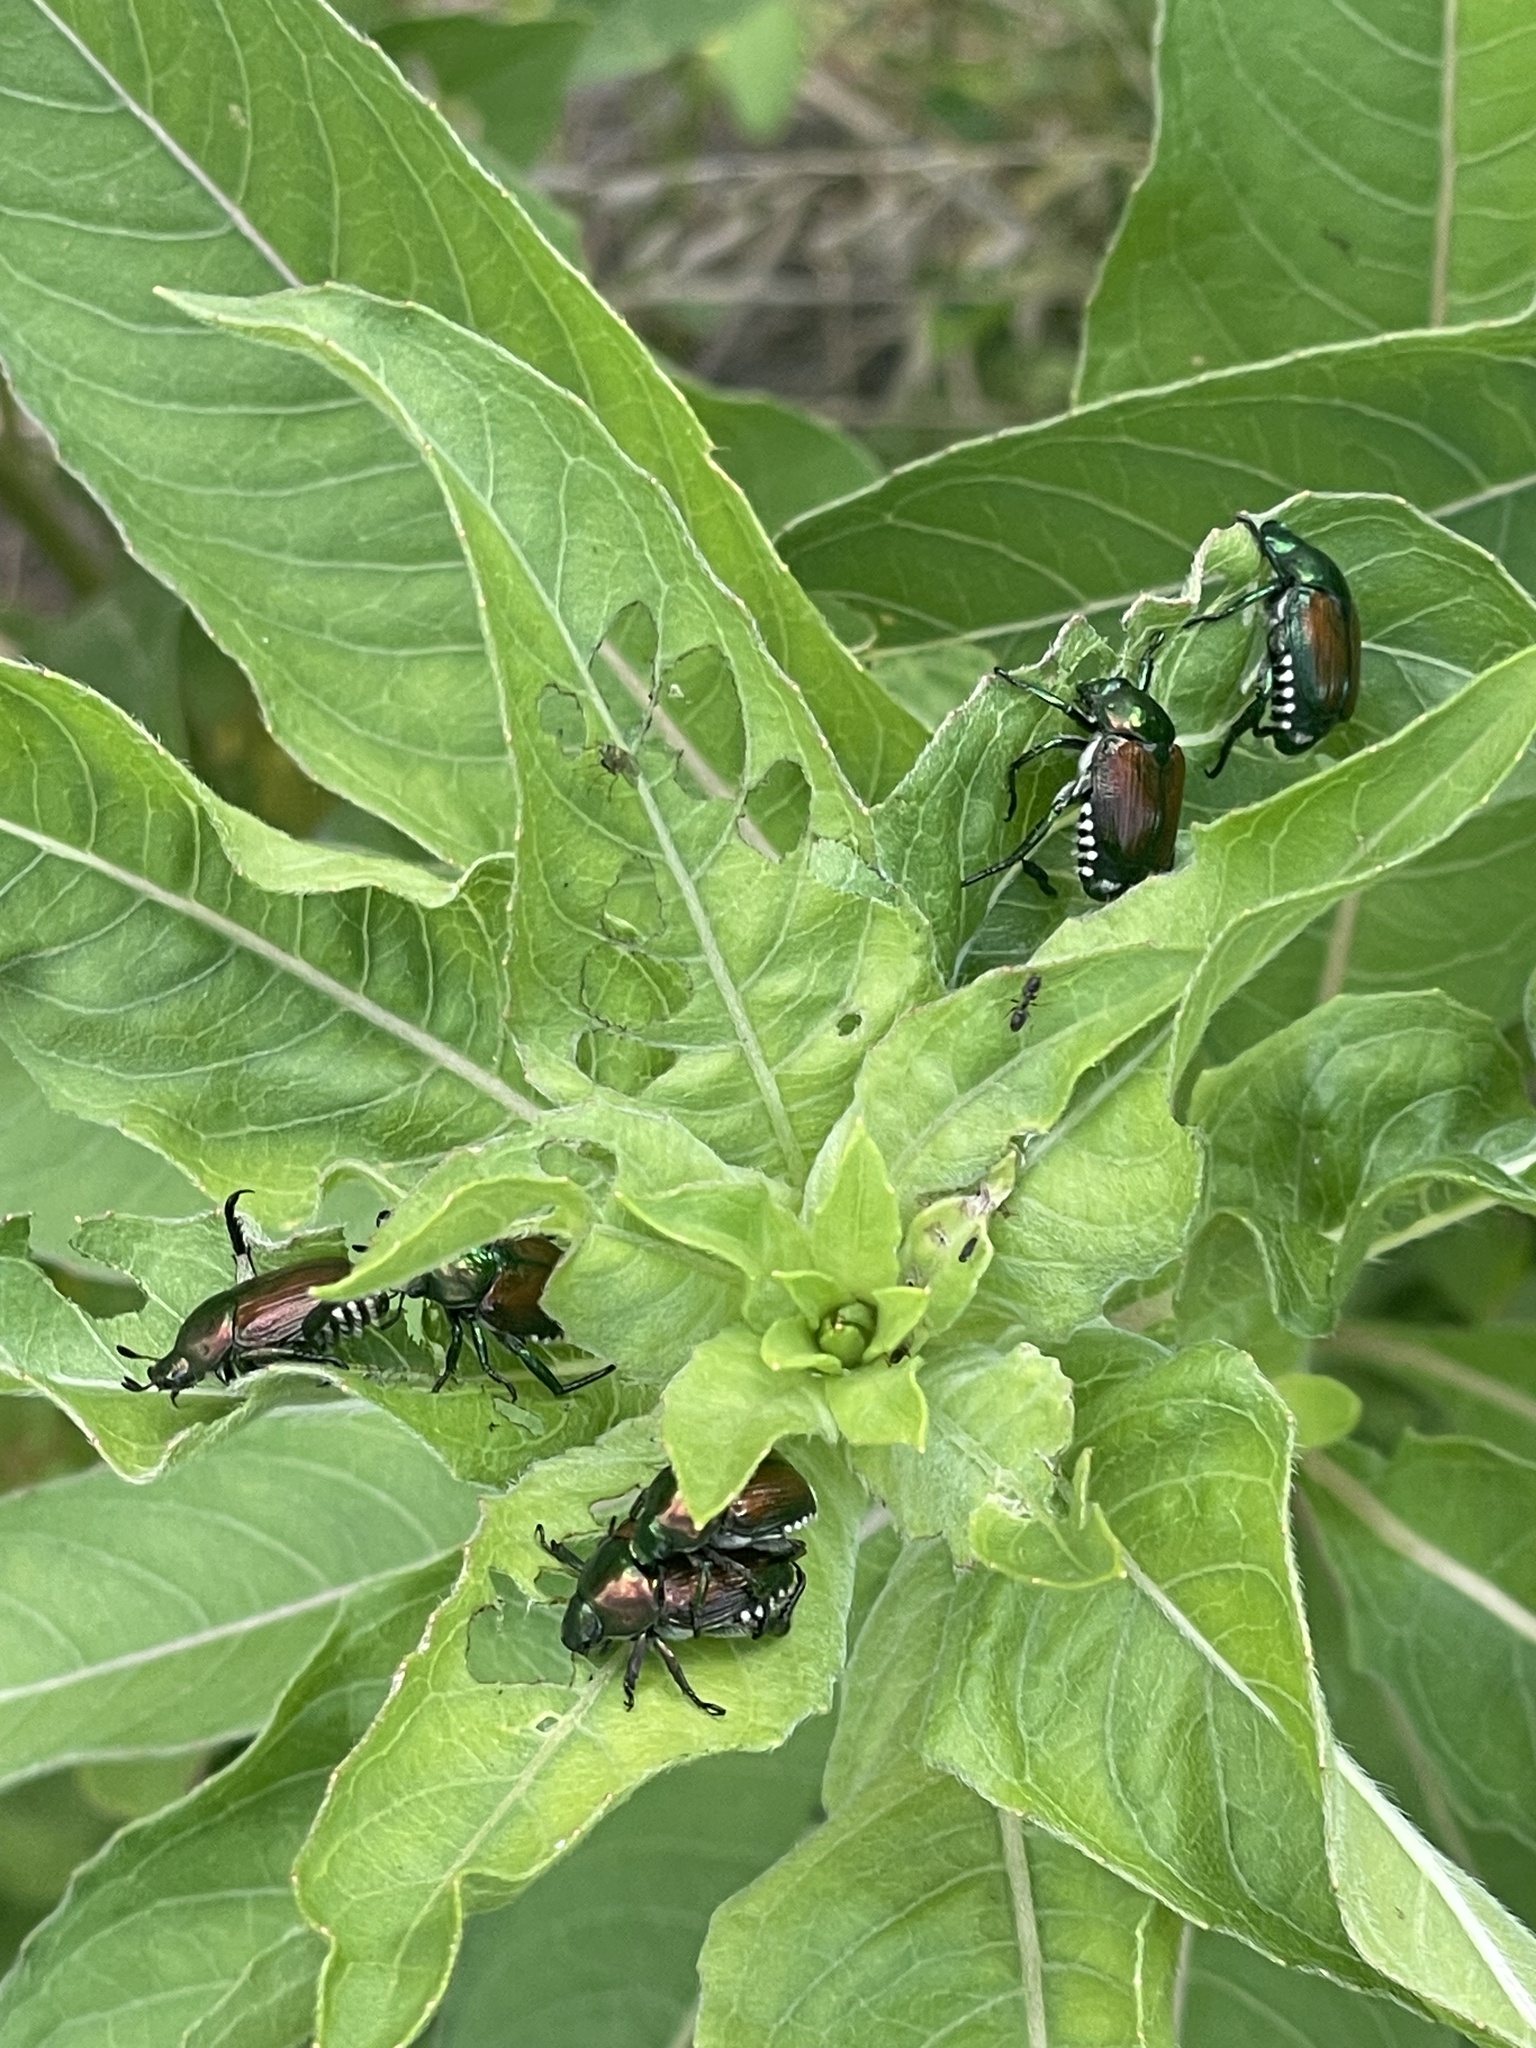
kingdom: Animalia
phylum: Arthropoda
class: Insecta
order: Coleoptera
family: Scarabaeidae
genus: Popillia
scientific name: Popillia japonica
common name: Japanese beetle
